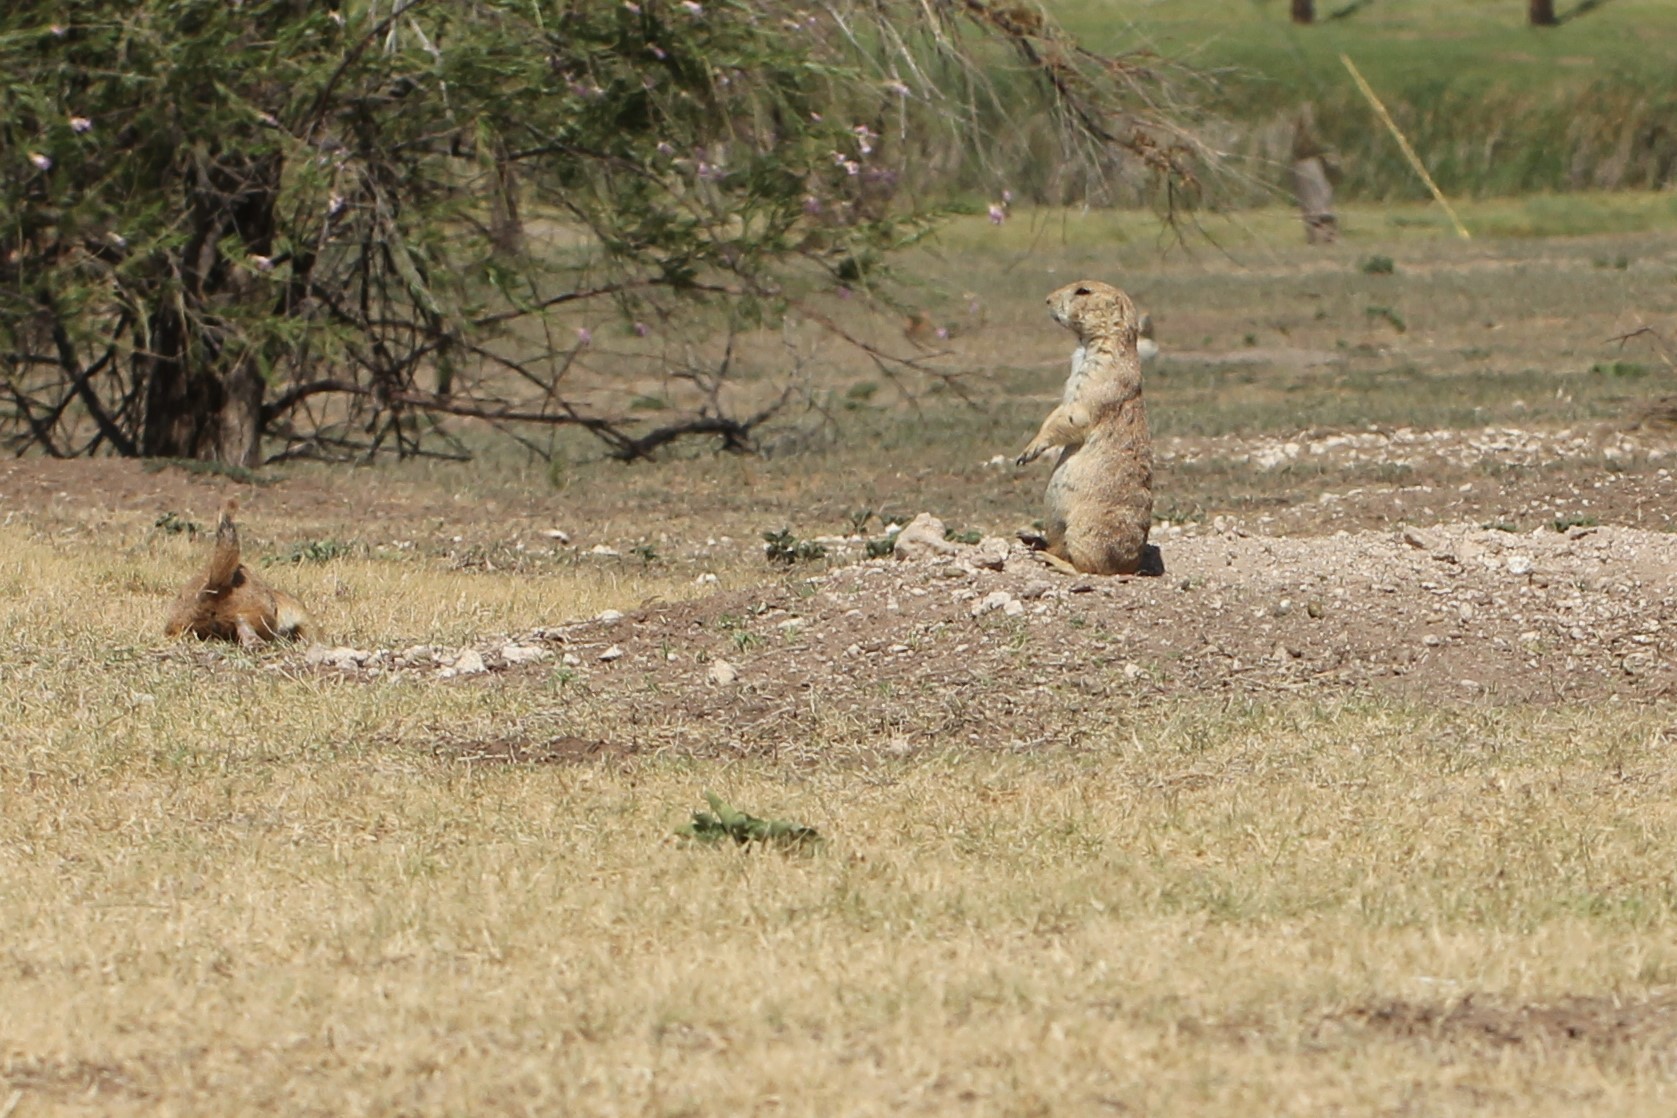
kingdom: Animalia
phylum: Chordata
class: Mammalia
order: Rodentia
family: Sciuridae
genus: Cynomys
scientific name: Cynomys ludovicianus
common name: Black-tailed prairie dog
